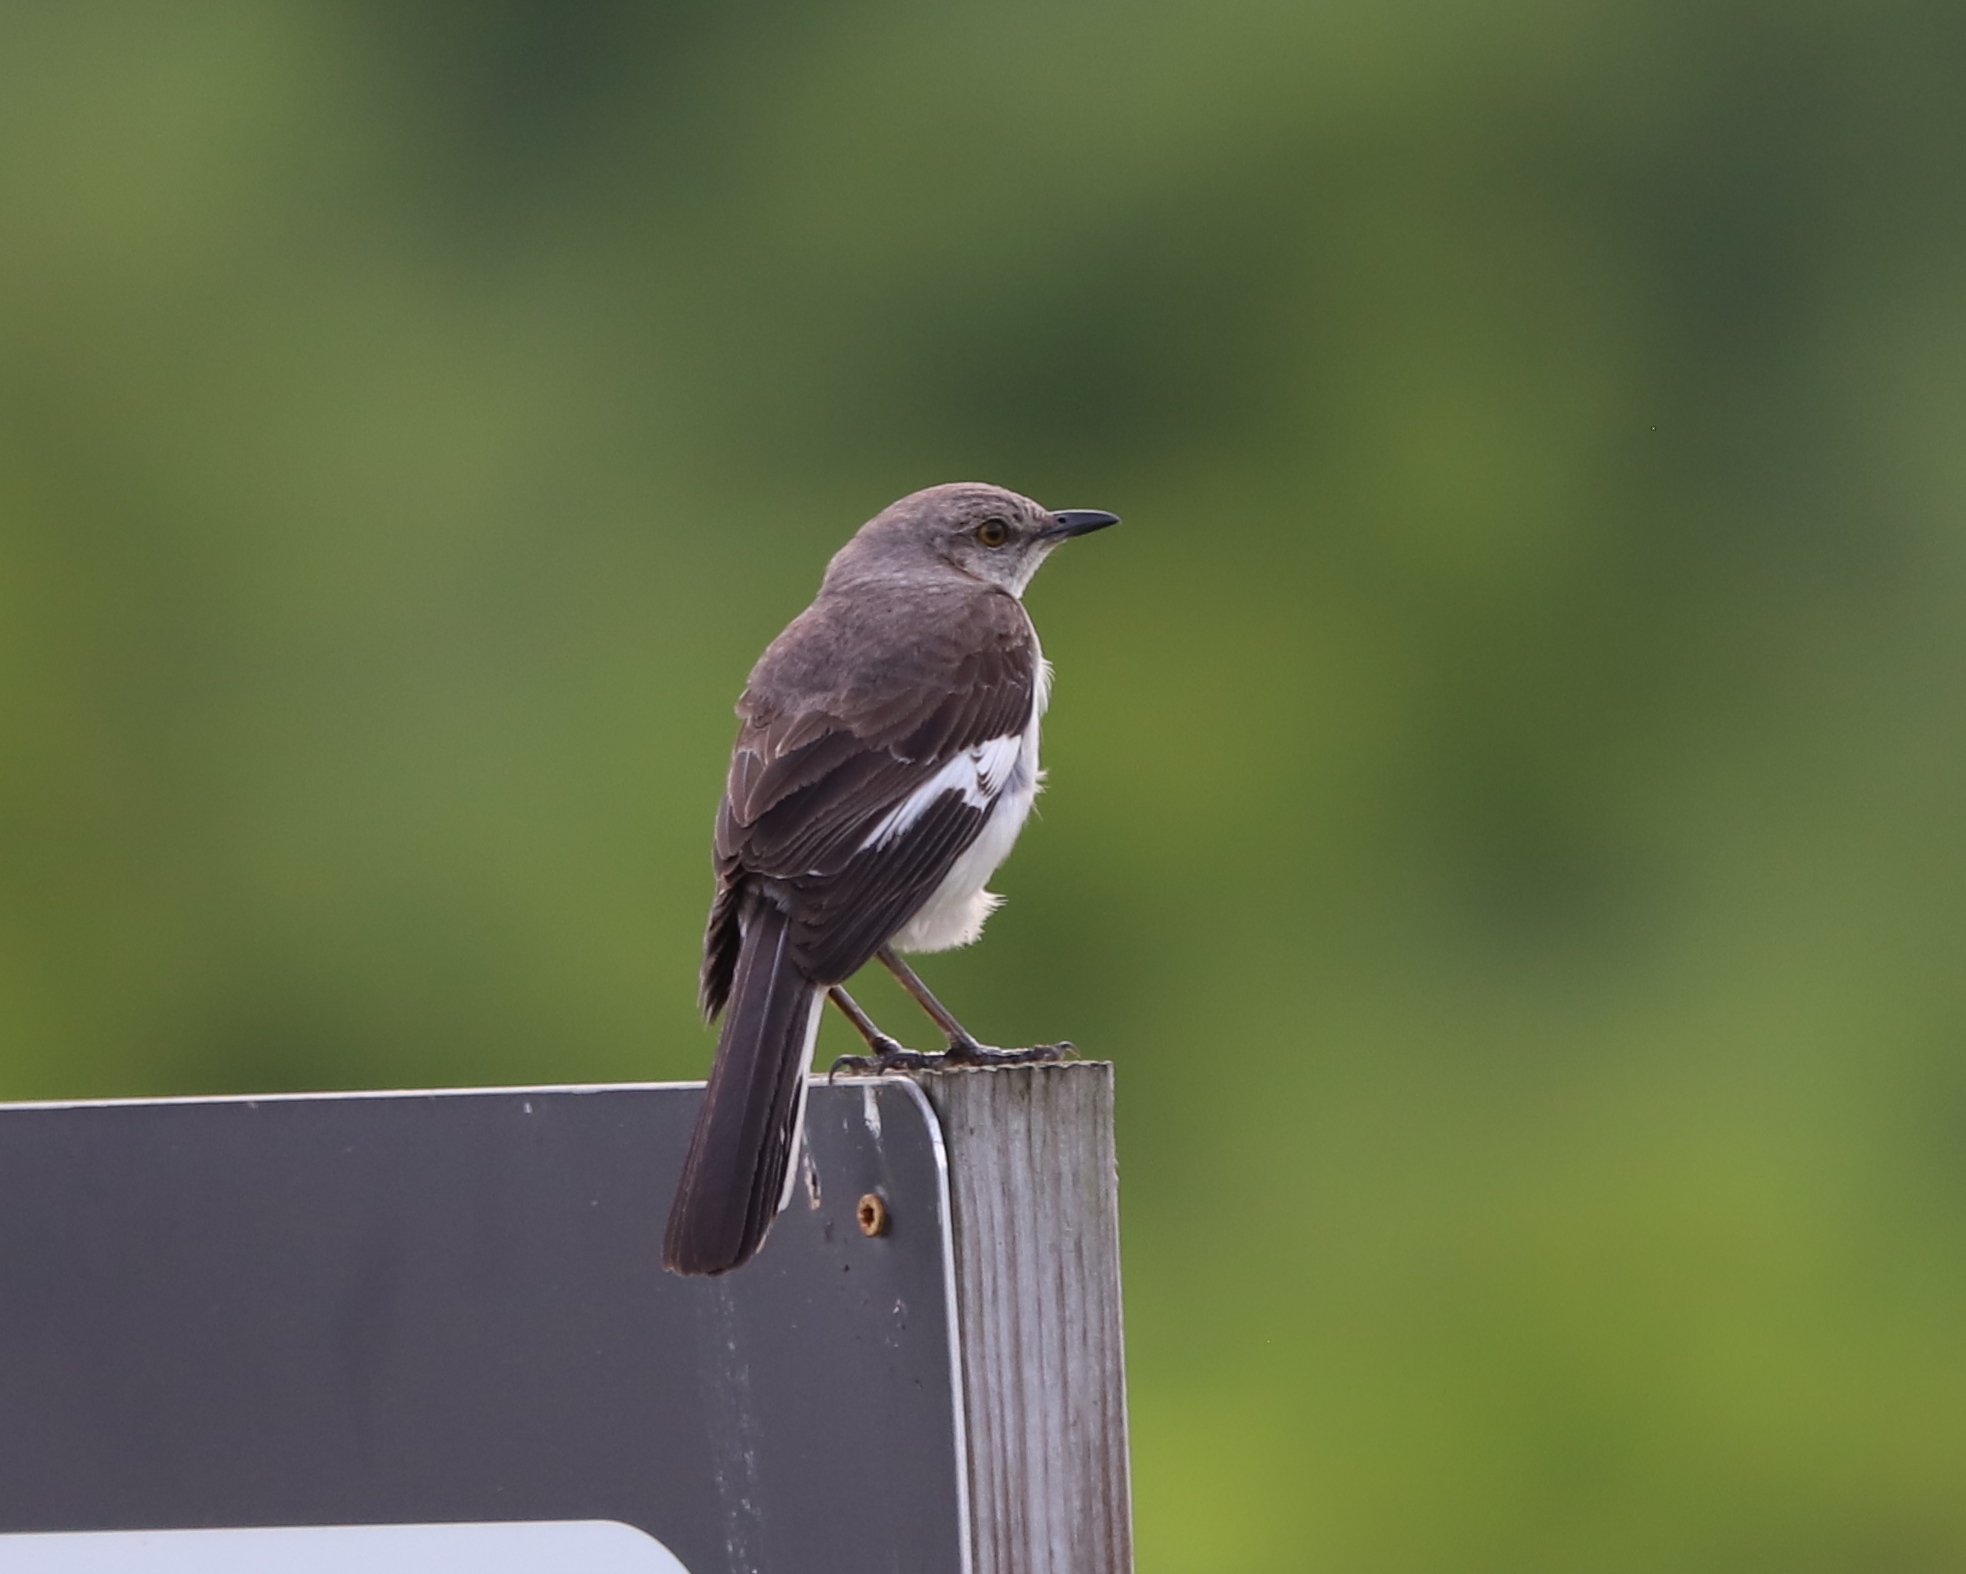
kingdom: Animalia
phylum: Chordata
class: Aves
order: Passeriformes
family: Mimidae
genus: Mimus
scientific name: Mimus polyglottos
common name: Northern mockingbird
